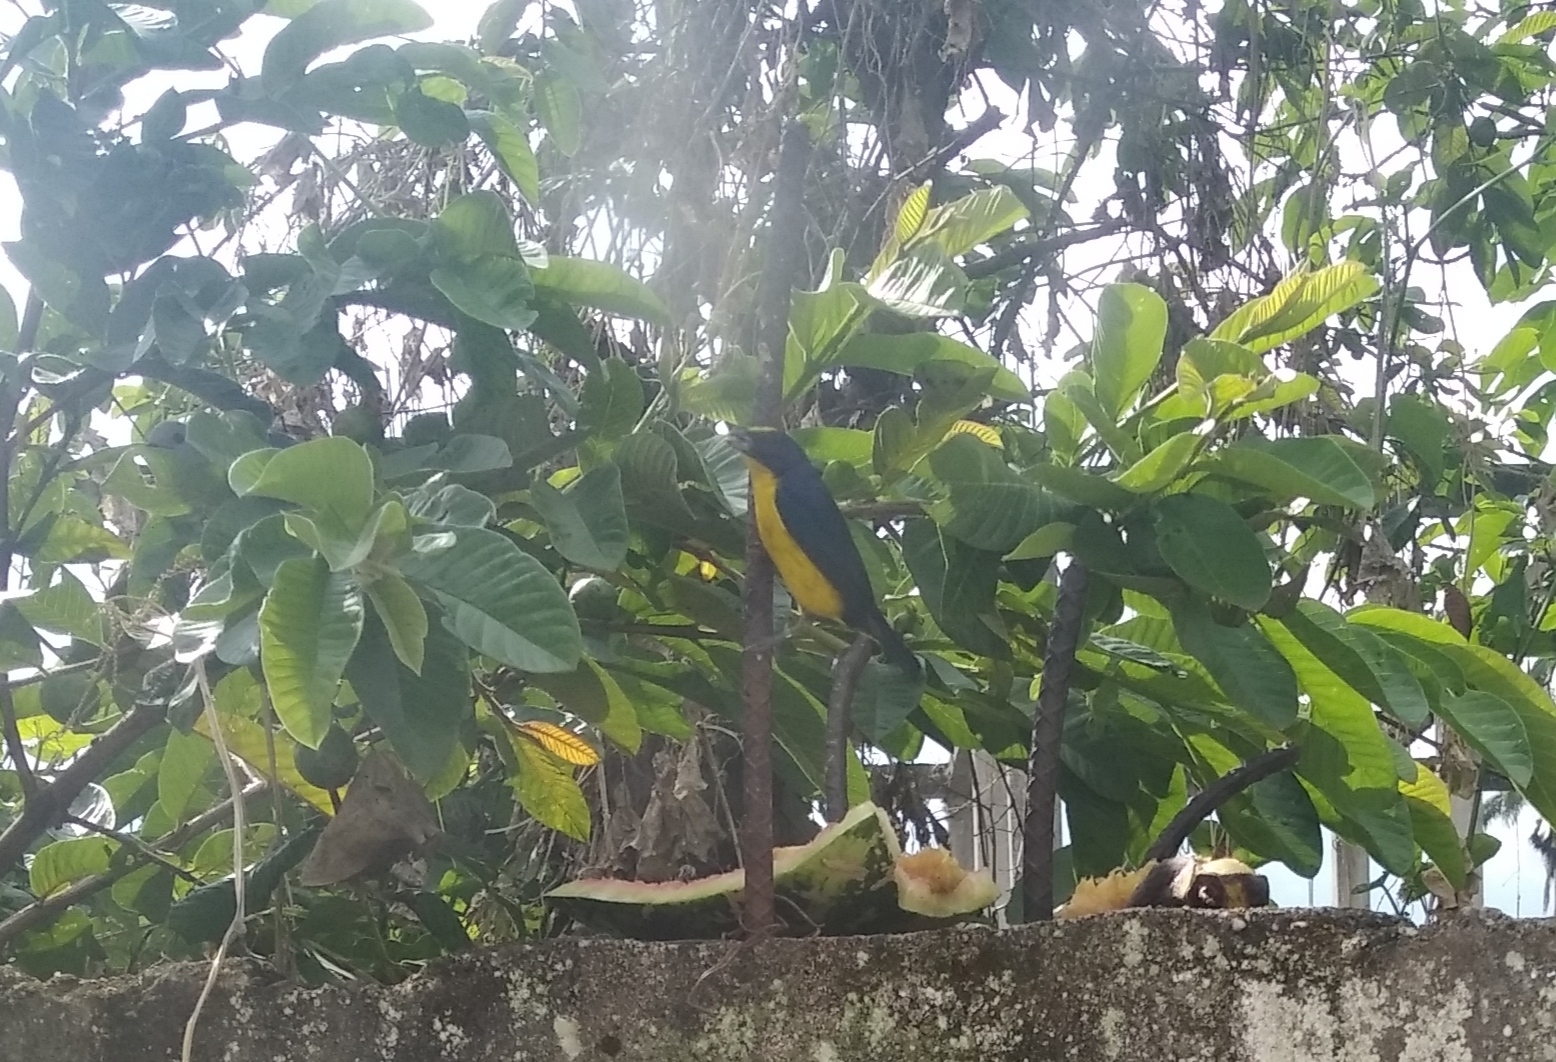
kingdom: Animalia
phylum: Chordata
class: Aves
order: Passeriformes
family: Fringillidae
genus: Euphonia
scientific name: Euphonia laniirostris
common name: Thick-billed euphonia
